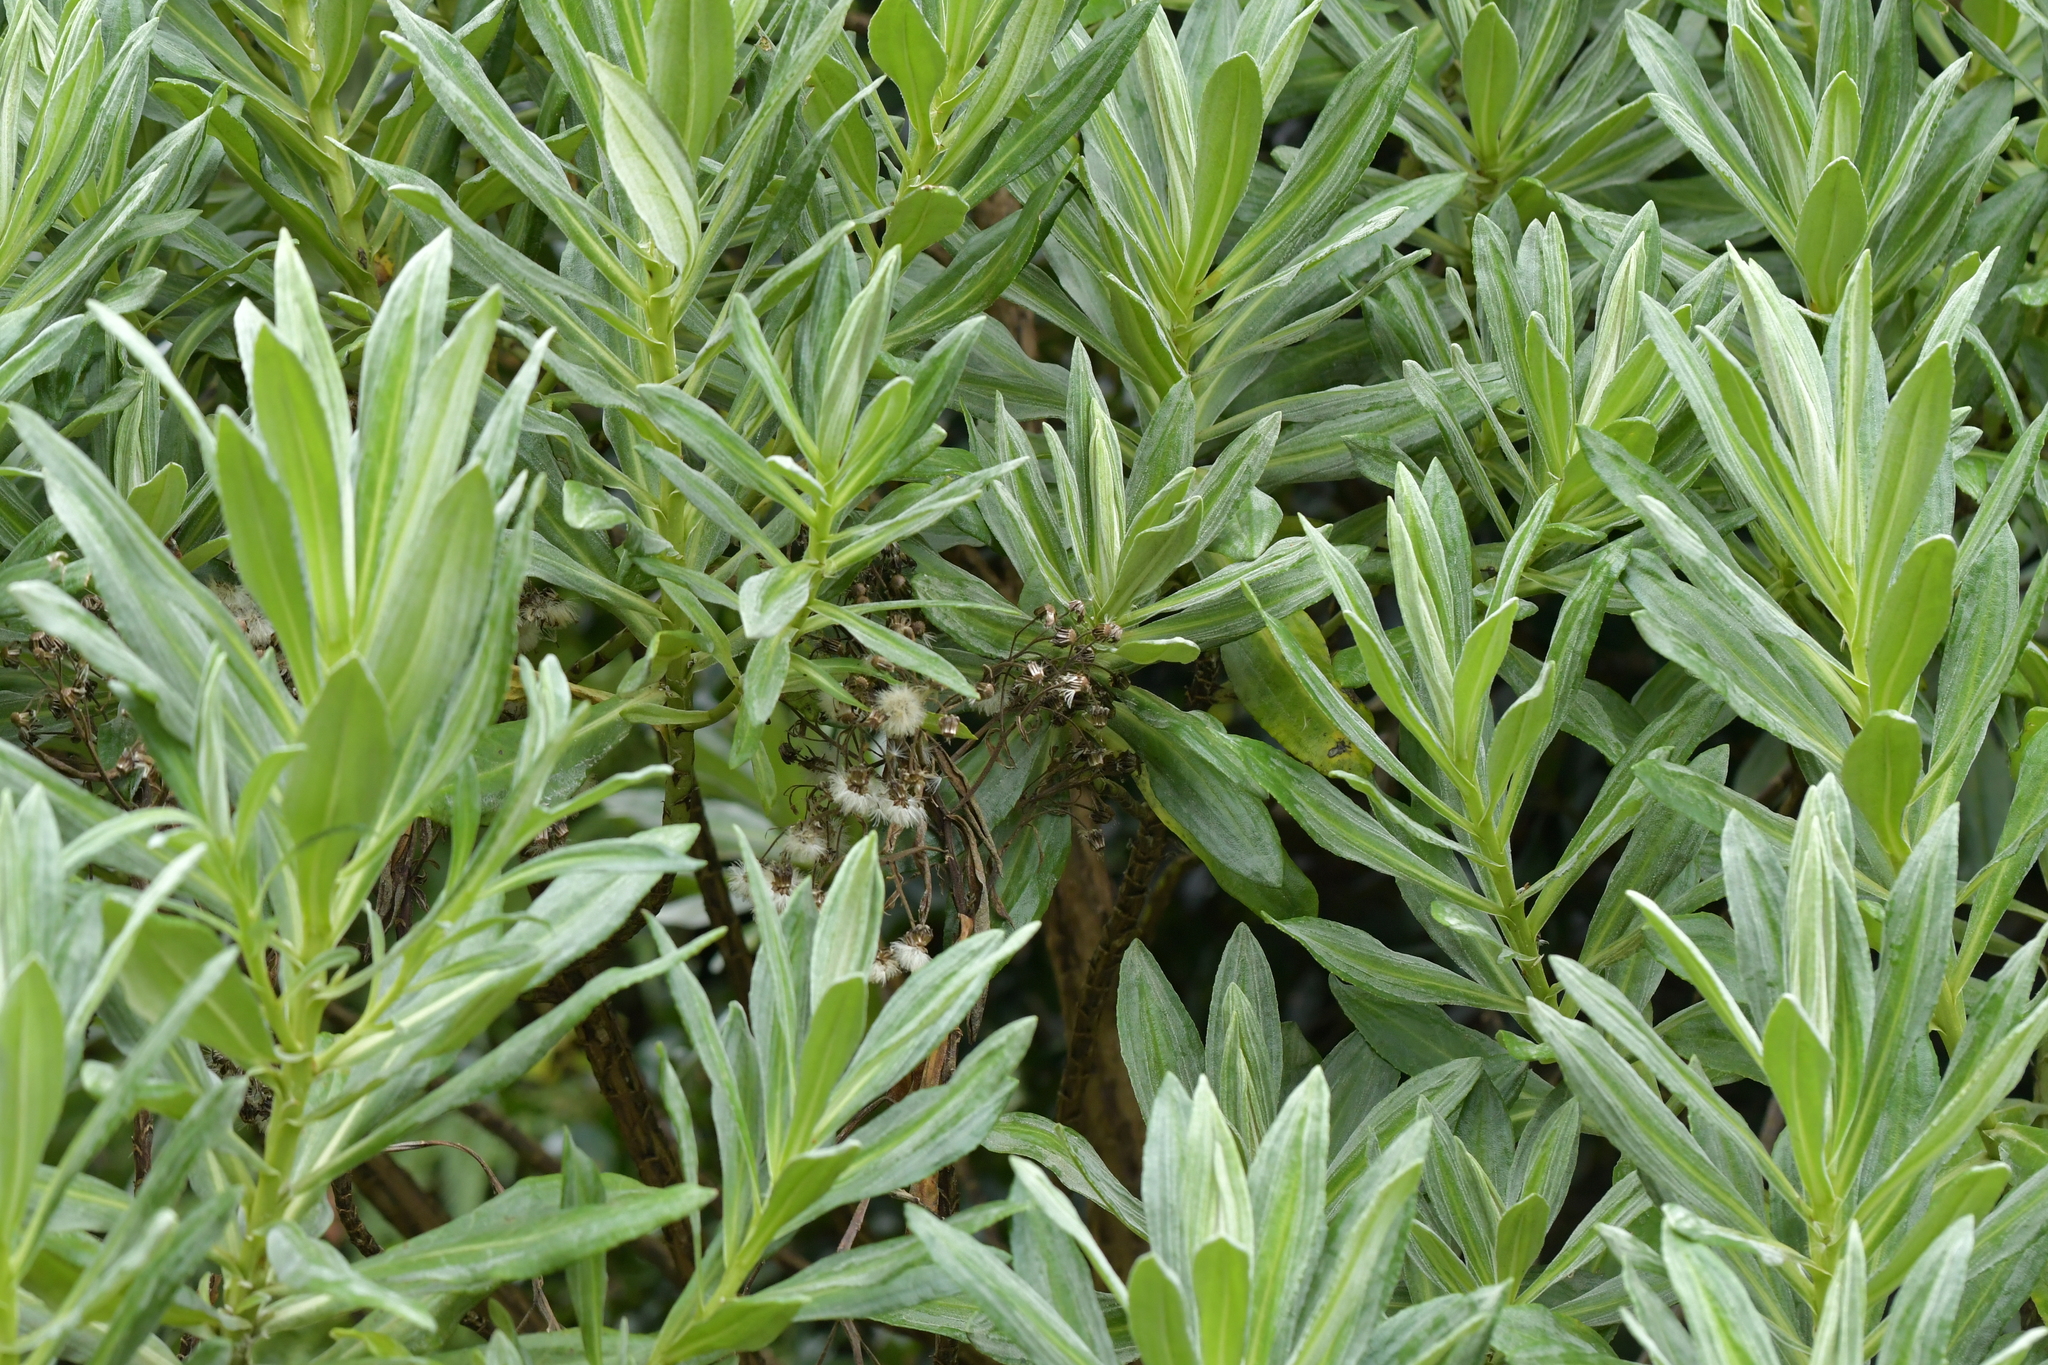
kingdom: Plantae
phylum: Tracheophyta
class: Magnoliopsida
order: Asterales
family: Asteraceae
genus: Brachyglottis
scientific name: Brachyglottis huntii
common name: Chatham island christmas tree
